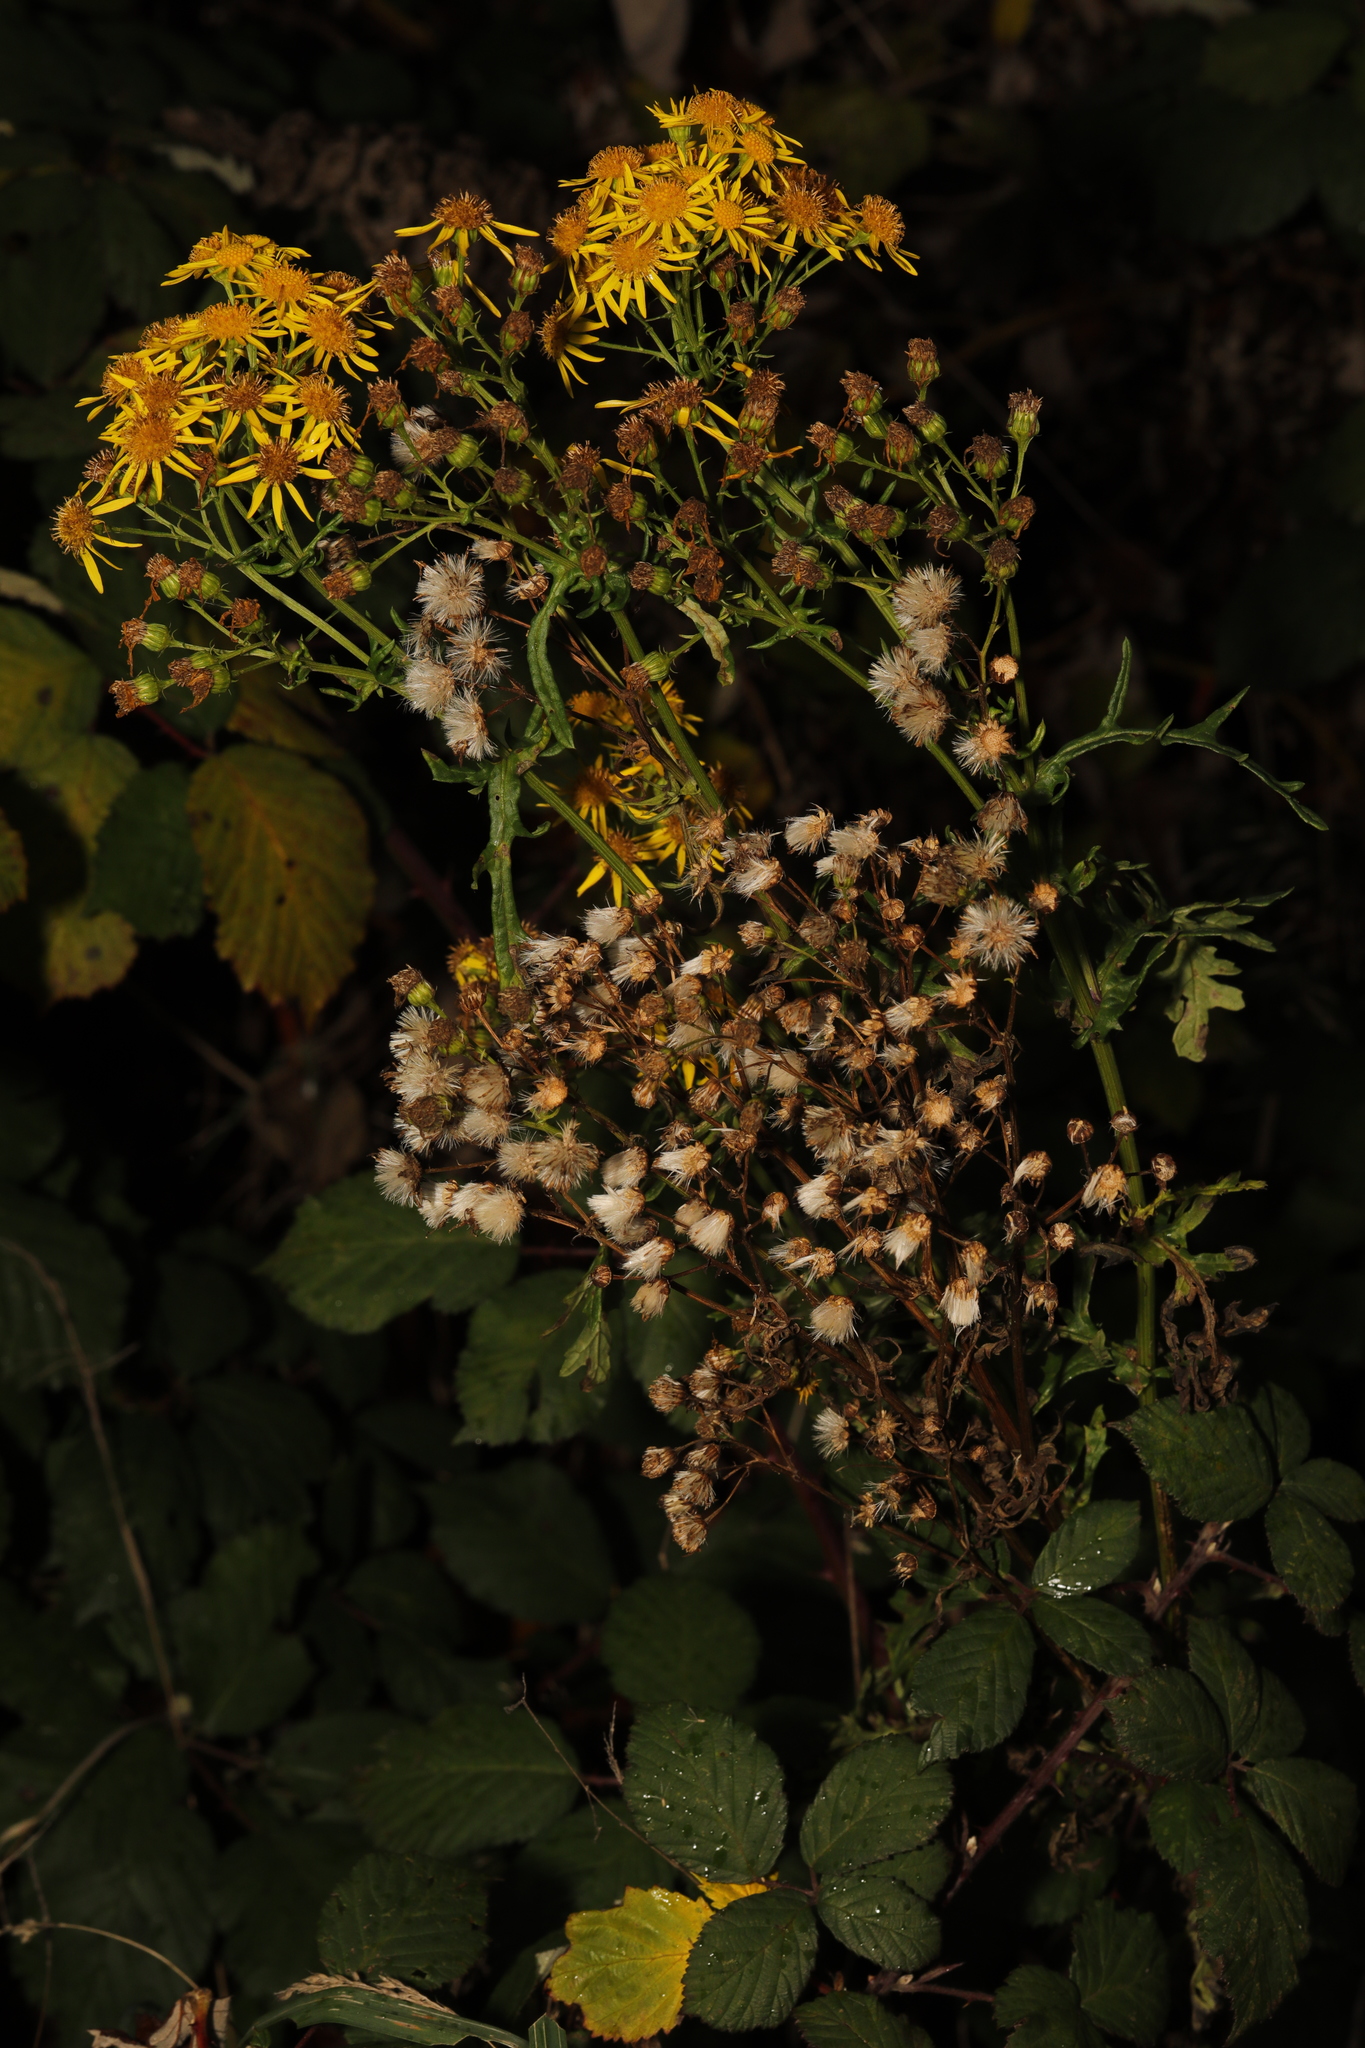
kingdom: Plantae
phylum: Tracheophyta
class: Magnoliopsida
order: Asterales
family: Asteraceae
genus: Jacobaea
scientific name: Jacobaea vulgaris
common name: Stinking willie
